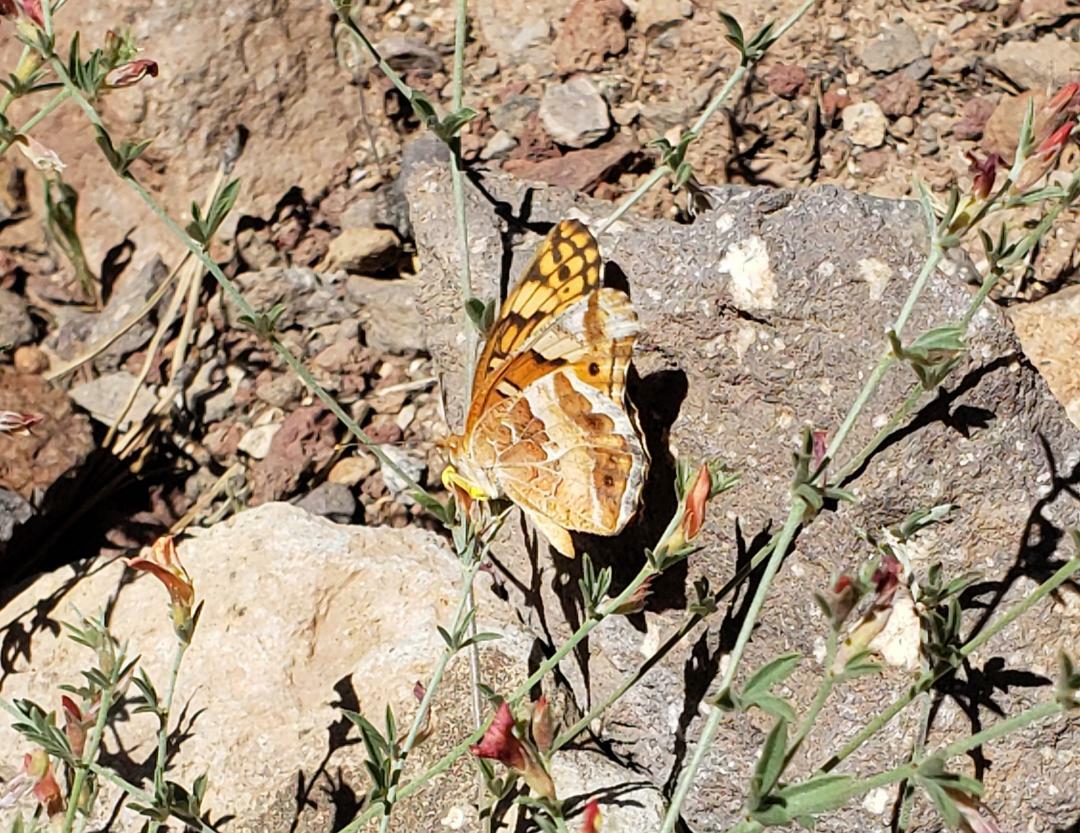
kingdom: Animalia
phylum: Arthropoda
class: Insecta
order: Lepidoptera
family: Nymphalidae
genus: Euptoieta
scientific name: Euptoieta claudia
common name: Variegated fritillary
